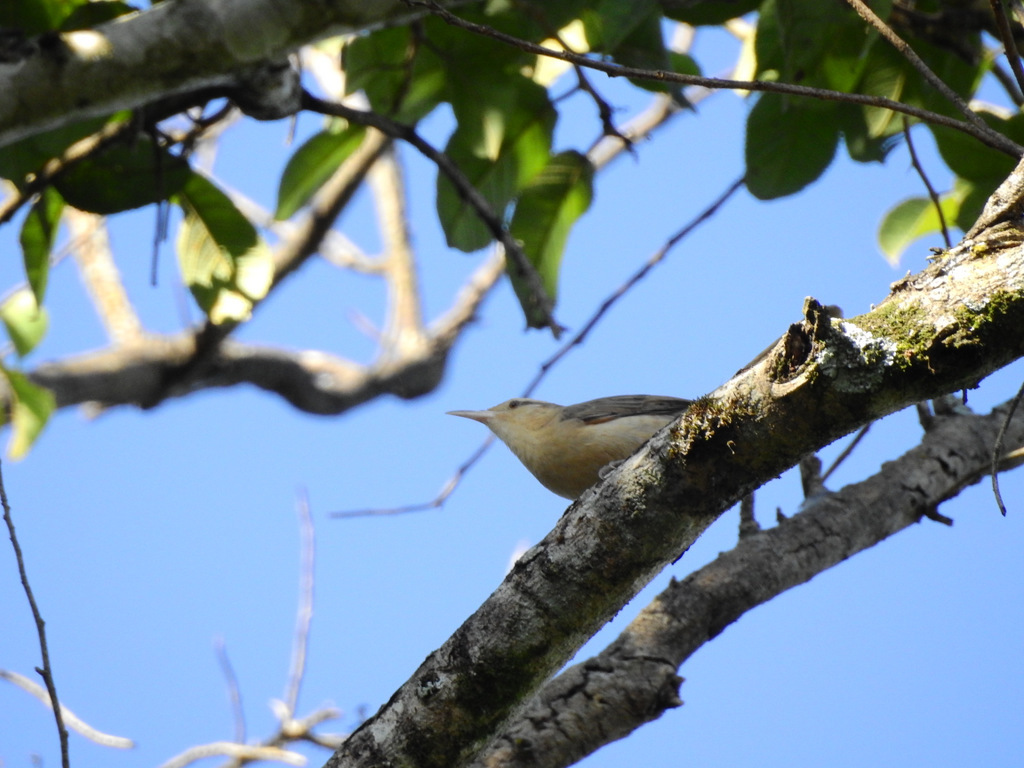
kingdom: Animalia
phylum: Chordata
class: Aves
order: Passeriformes
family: Troglodytidae
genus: Campylorhynchus
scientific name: Campylorhynchus turdinus
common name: Thrush-like wren
